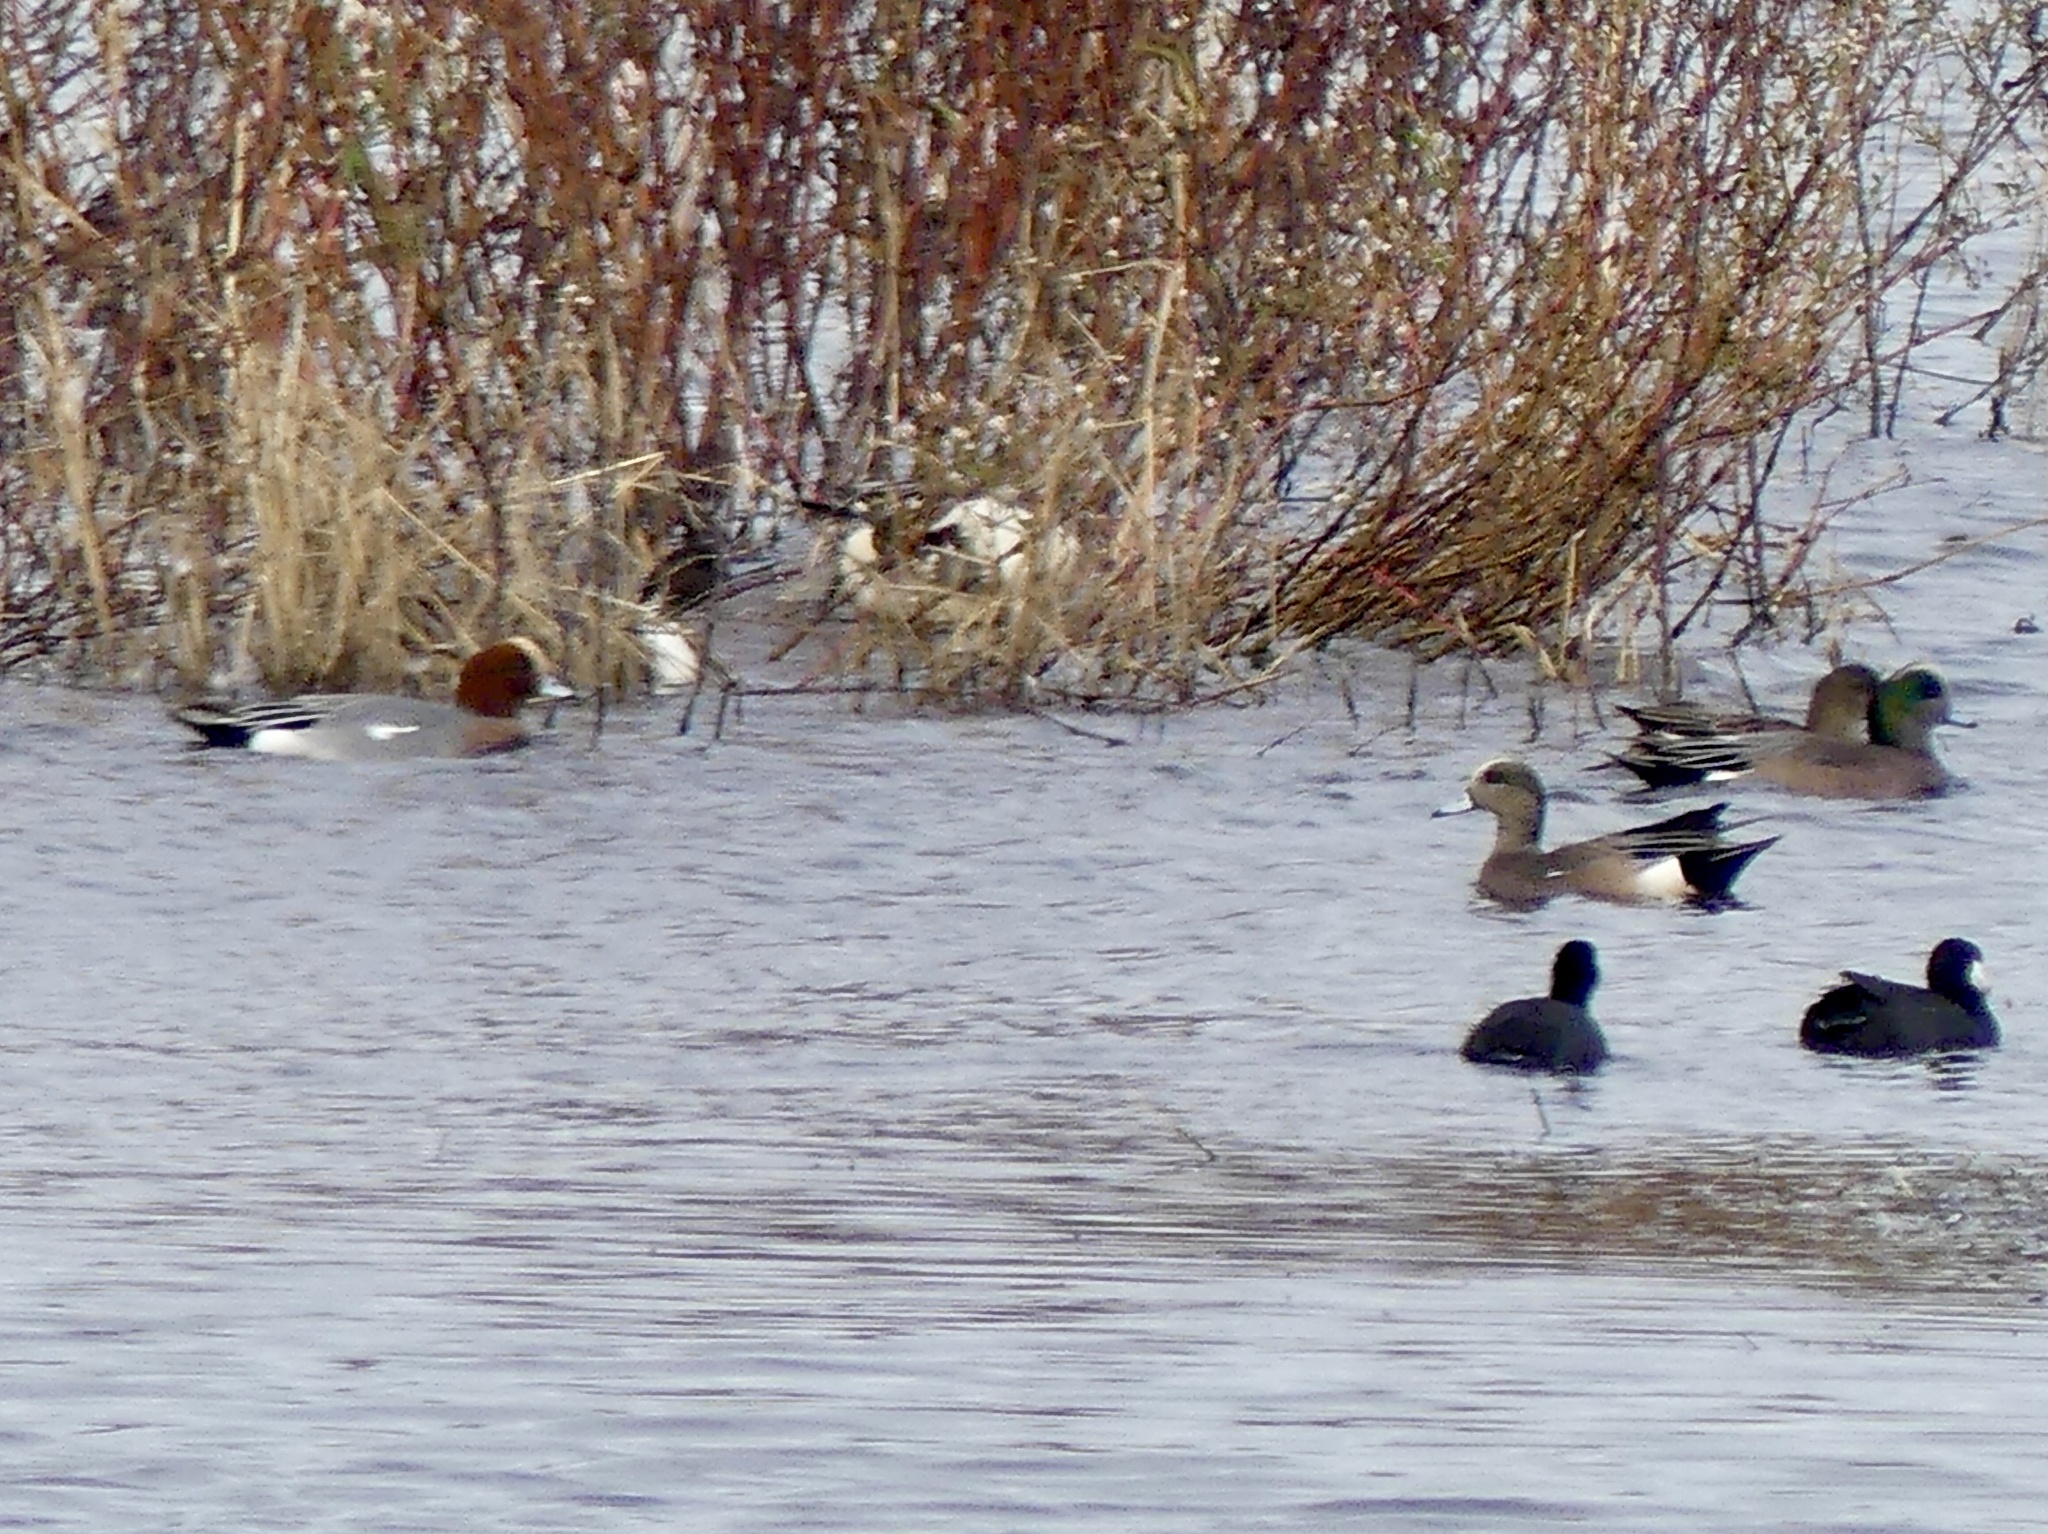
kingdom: Animalia
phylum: Chordata
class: Aves
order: Anseriformes
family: Anatidae
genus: Mareca
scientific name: Mareca penelope
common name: Eurasian wigeon
